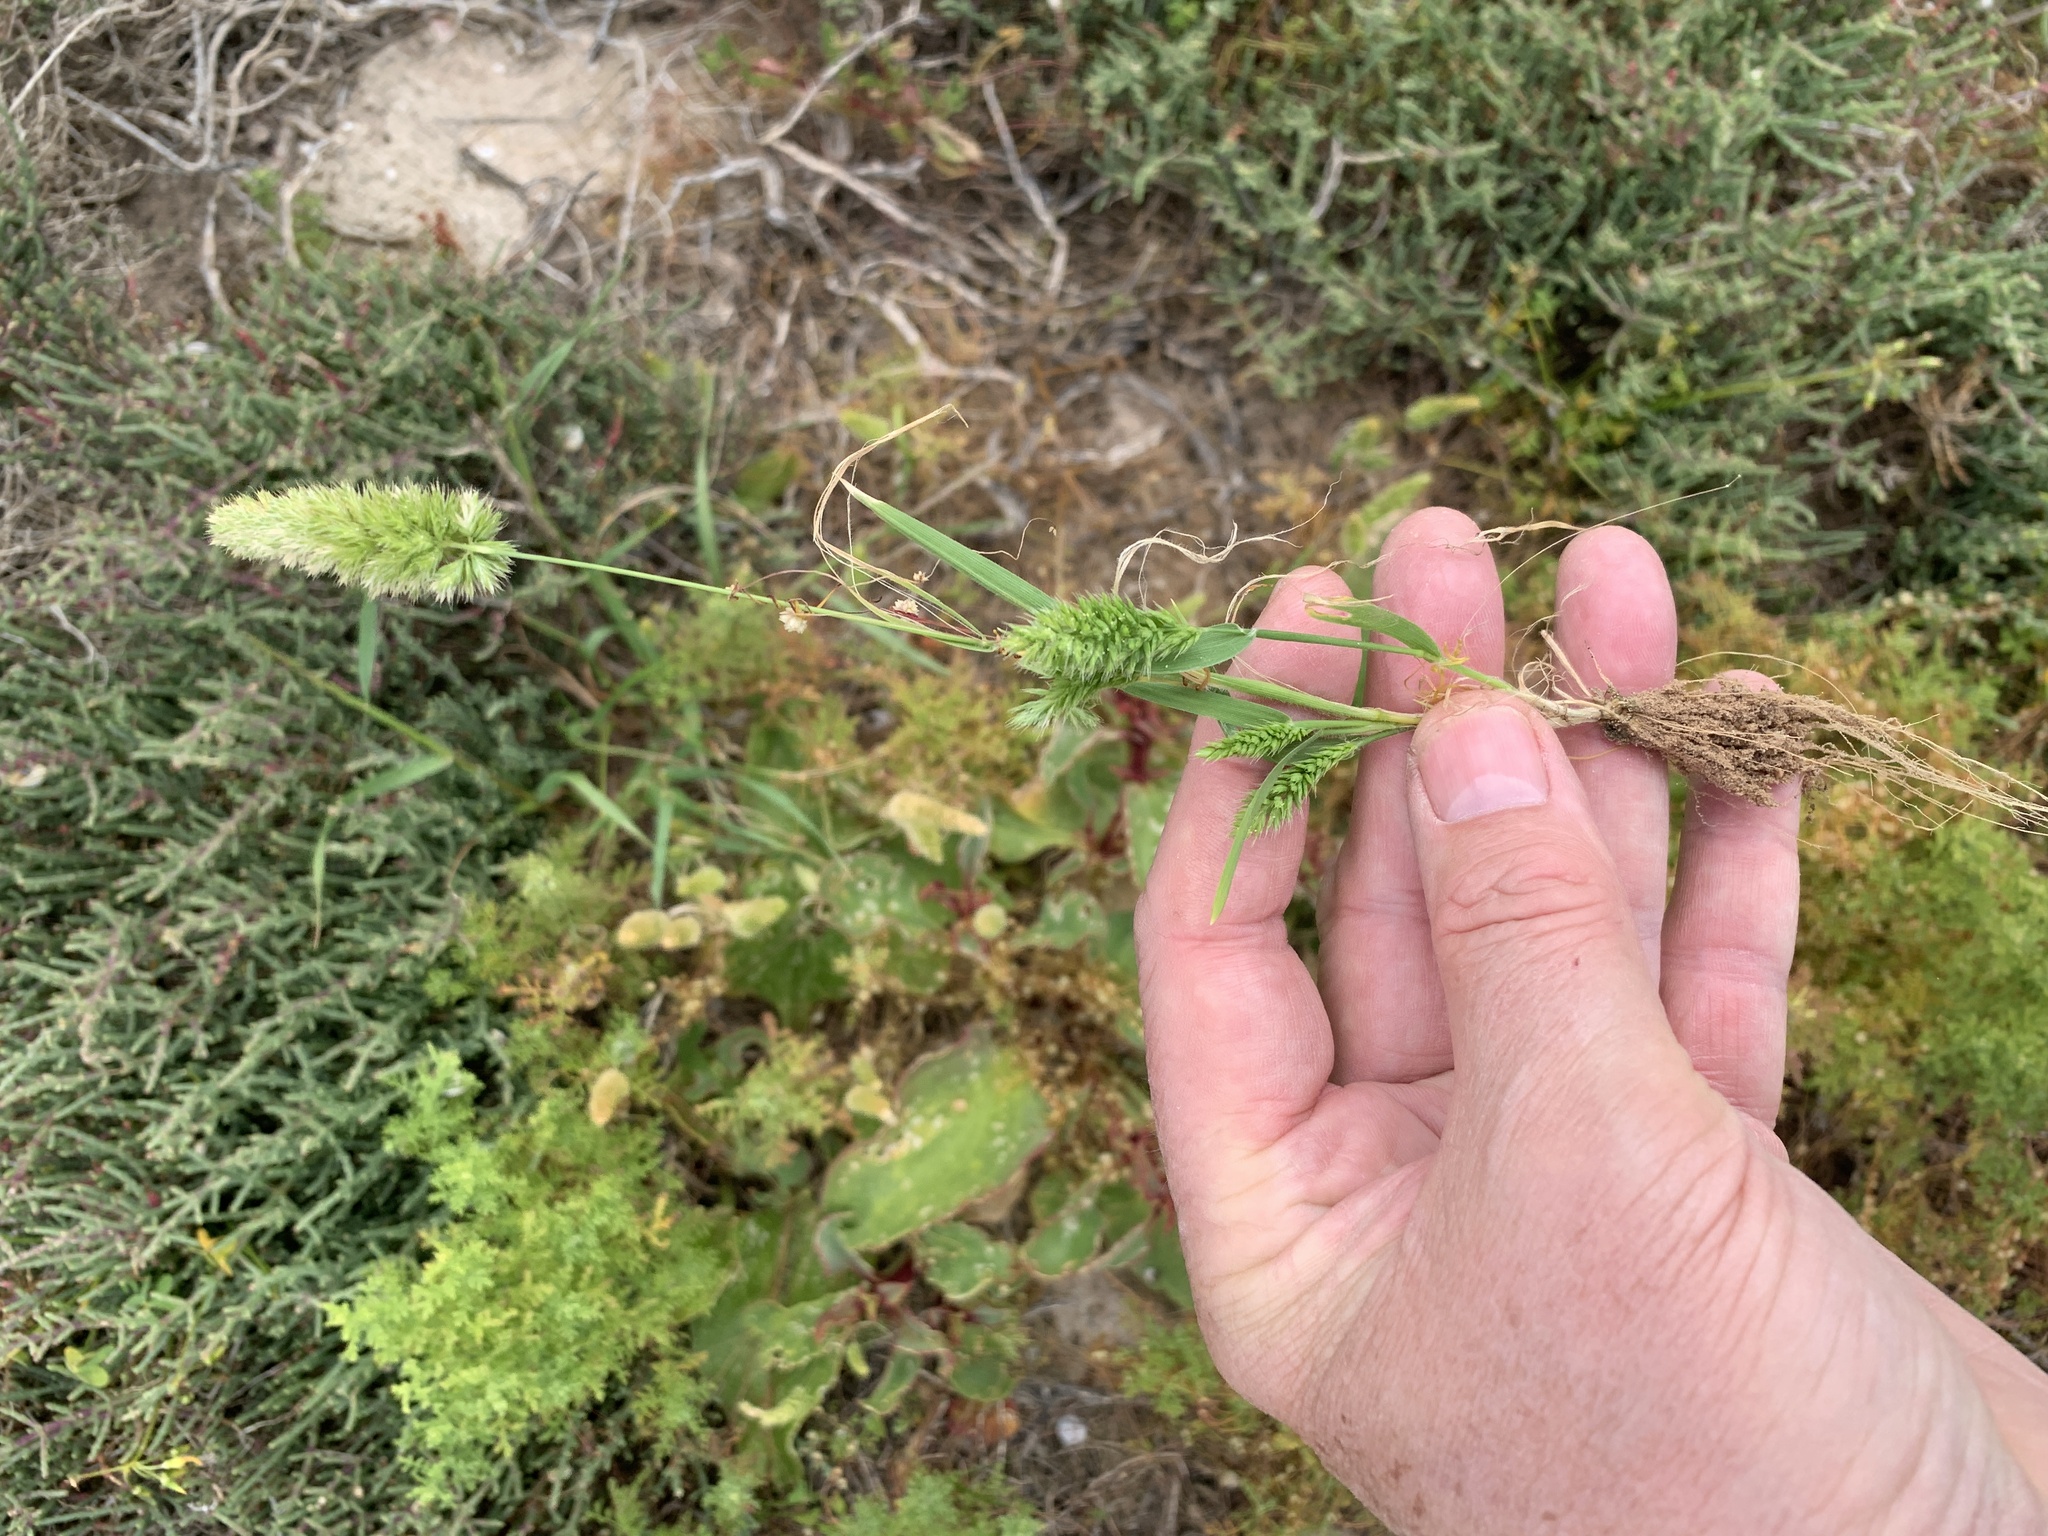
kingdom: Plantae
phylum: Tracheophyta
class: Liliopsida
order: Poales
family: Poaceae
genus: Rostraria
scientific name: Rostraria cristata
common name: Mediterranean hair-grass
